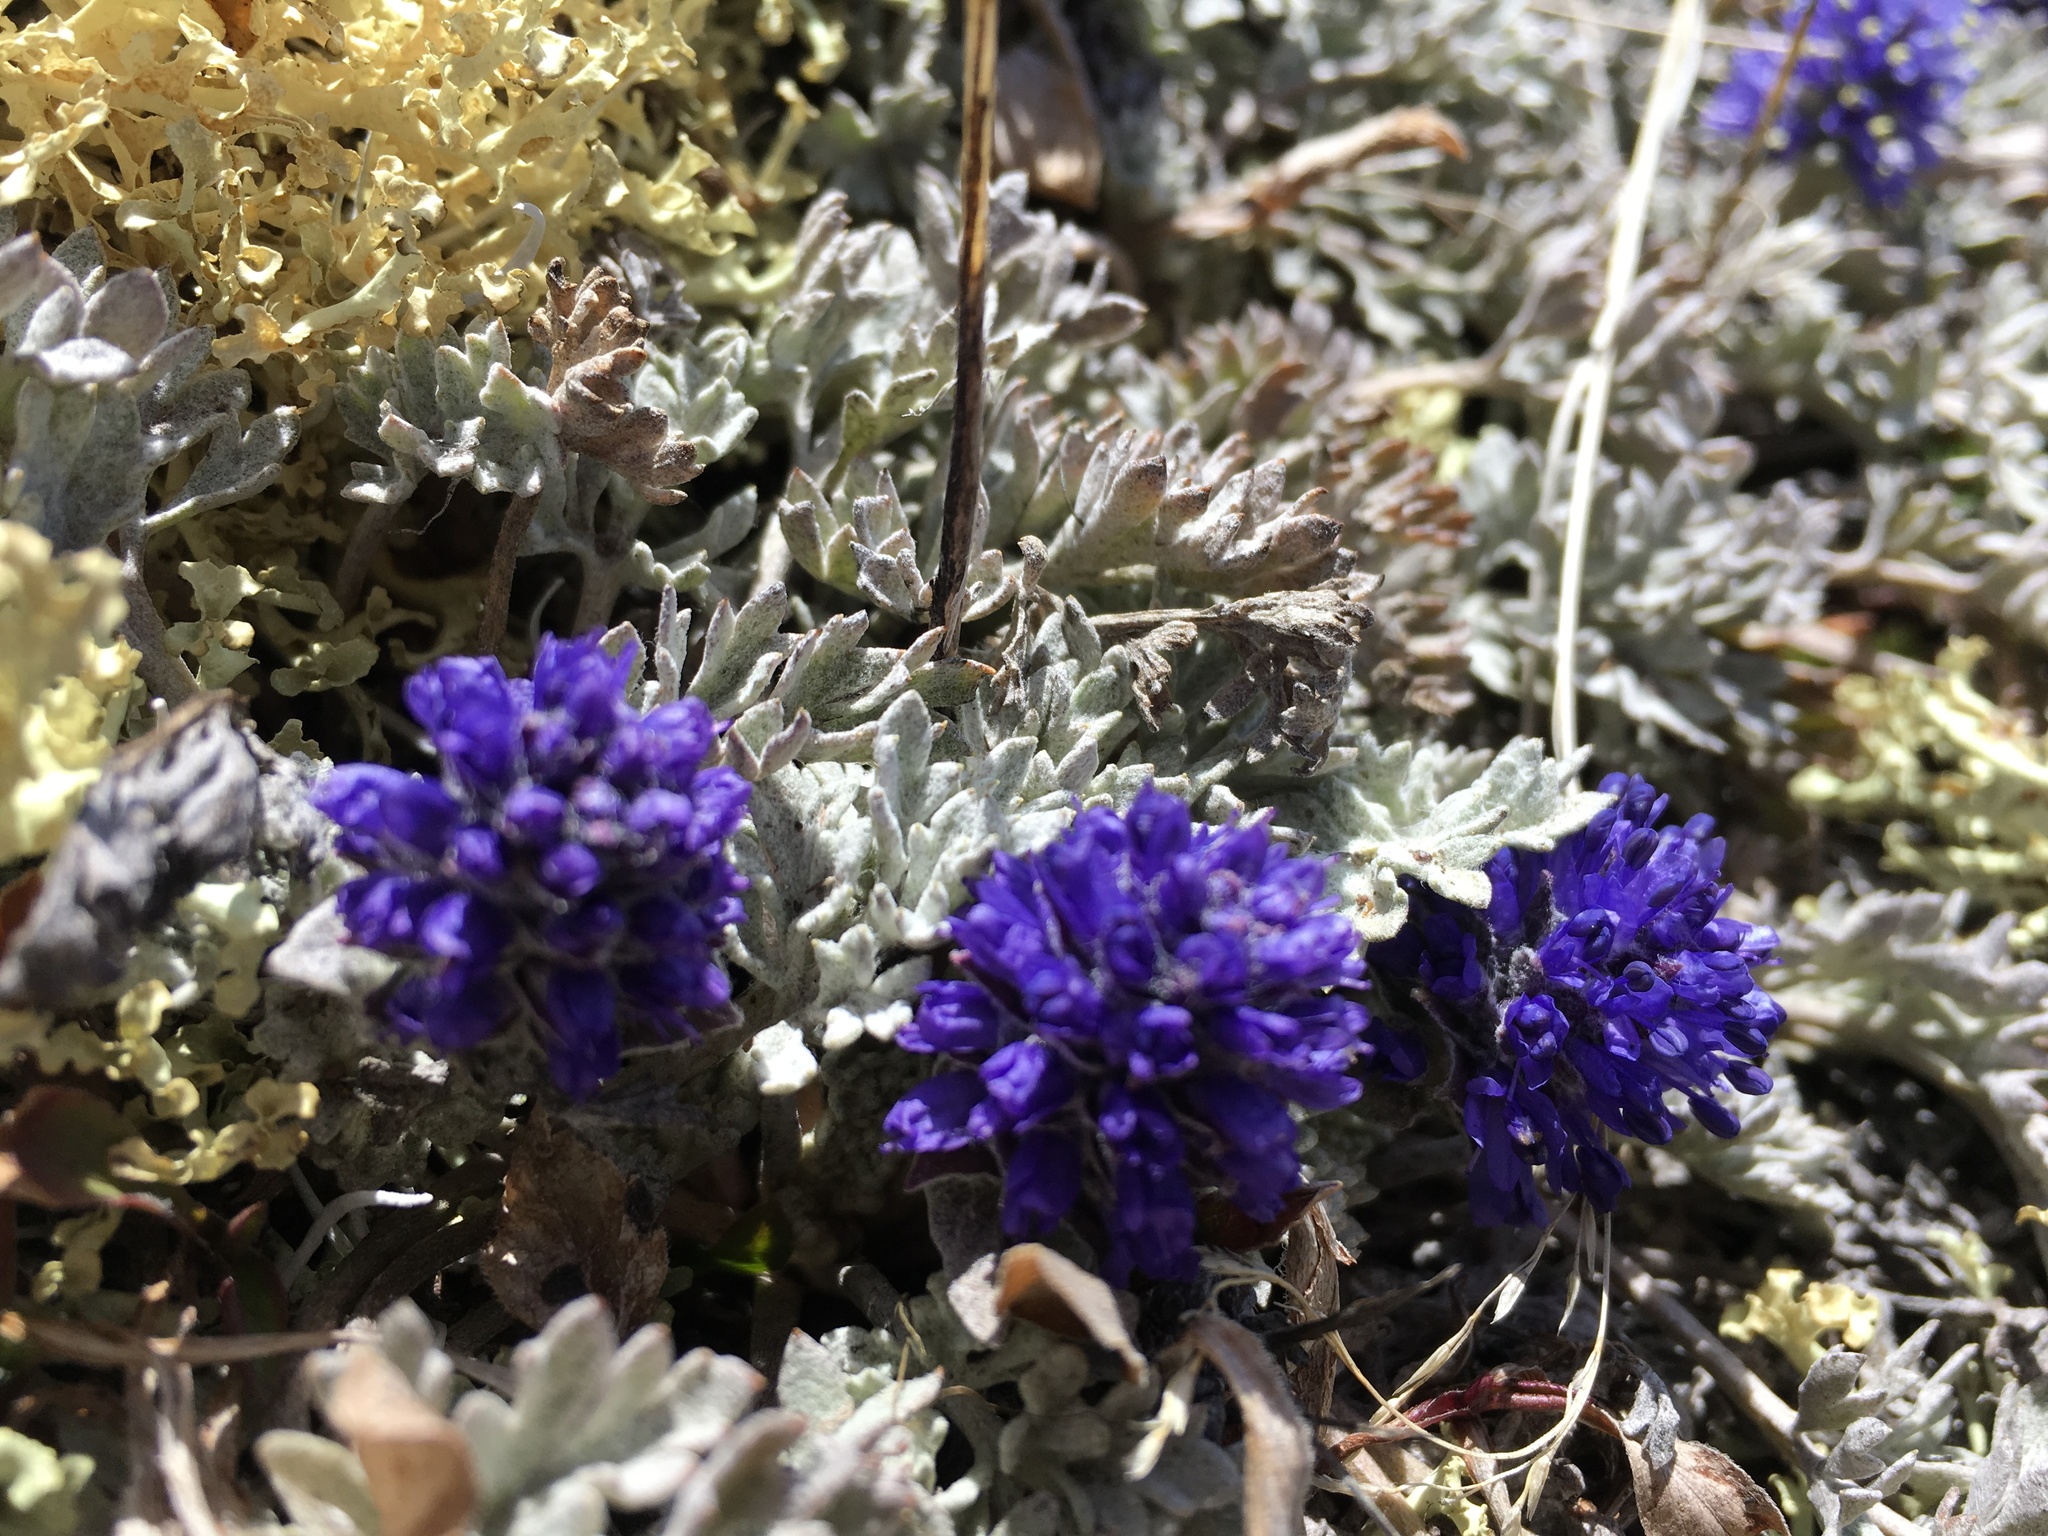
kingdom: Plantae
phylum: Tracheophyta
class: Magnoliopsida
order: Lamiales
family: Plantaginaceae
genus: Synthyris
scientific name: Synthyris lanuginosa
